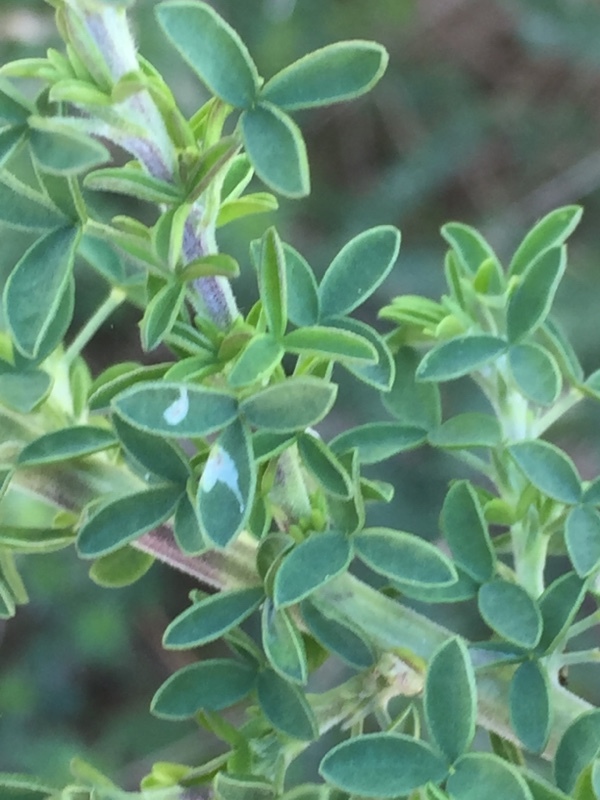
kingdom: Plantae
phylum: Tracheophyta
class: Magnoliopsida
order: Fabales
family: Fabaceae
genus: Chamaecytisus
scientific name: Chamaecytisus prolifer
